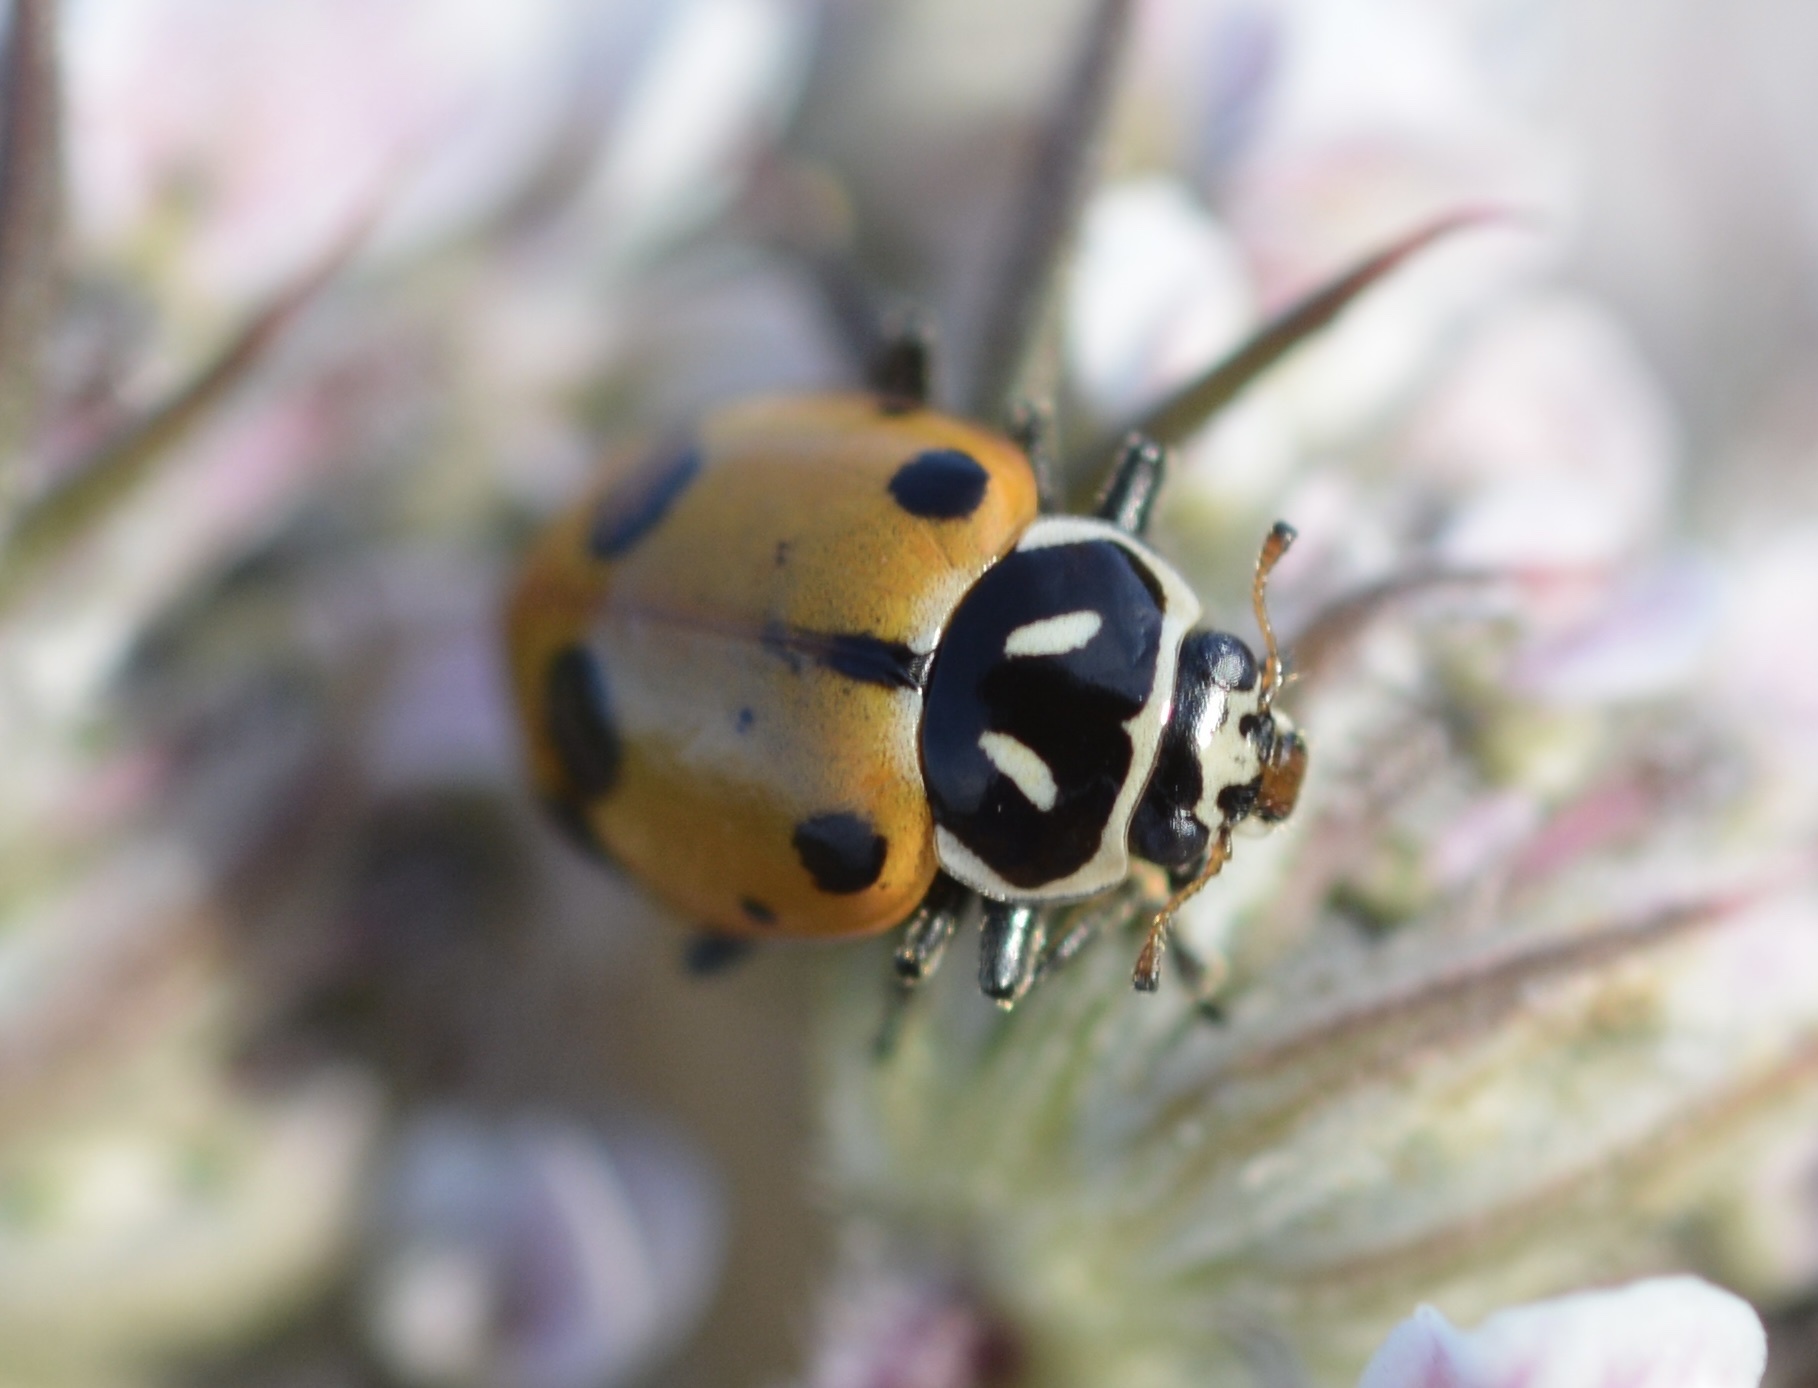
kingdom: Animalia
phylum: Arthropoda
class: Insecta
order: Coleoptera
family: Coccinellidae
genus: Hippodamia
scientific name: Hippodamia convergens
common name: Convergent lady beetle
